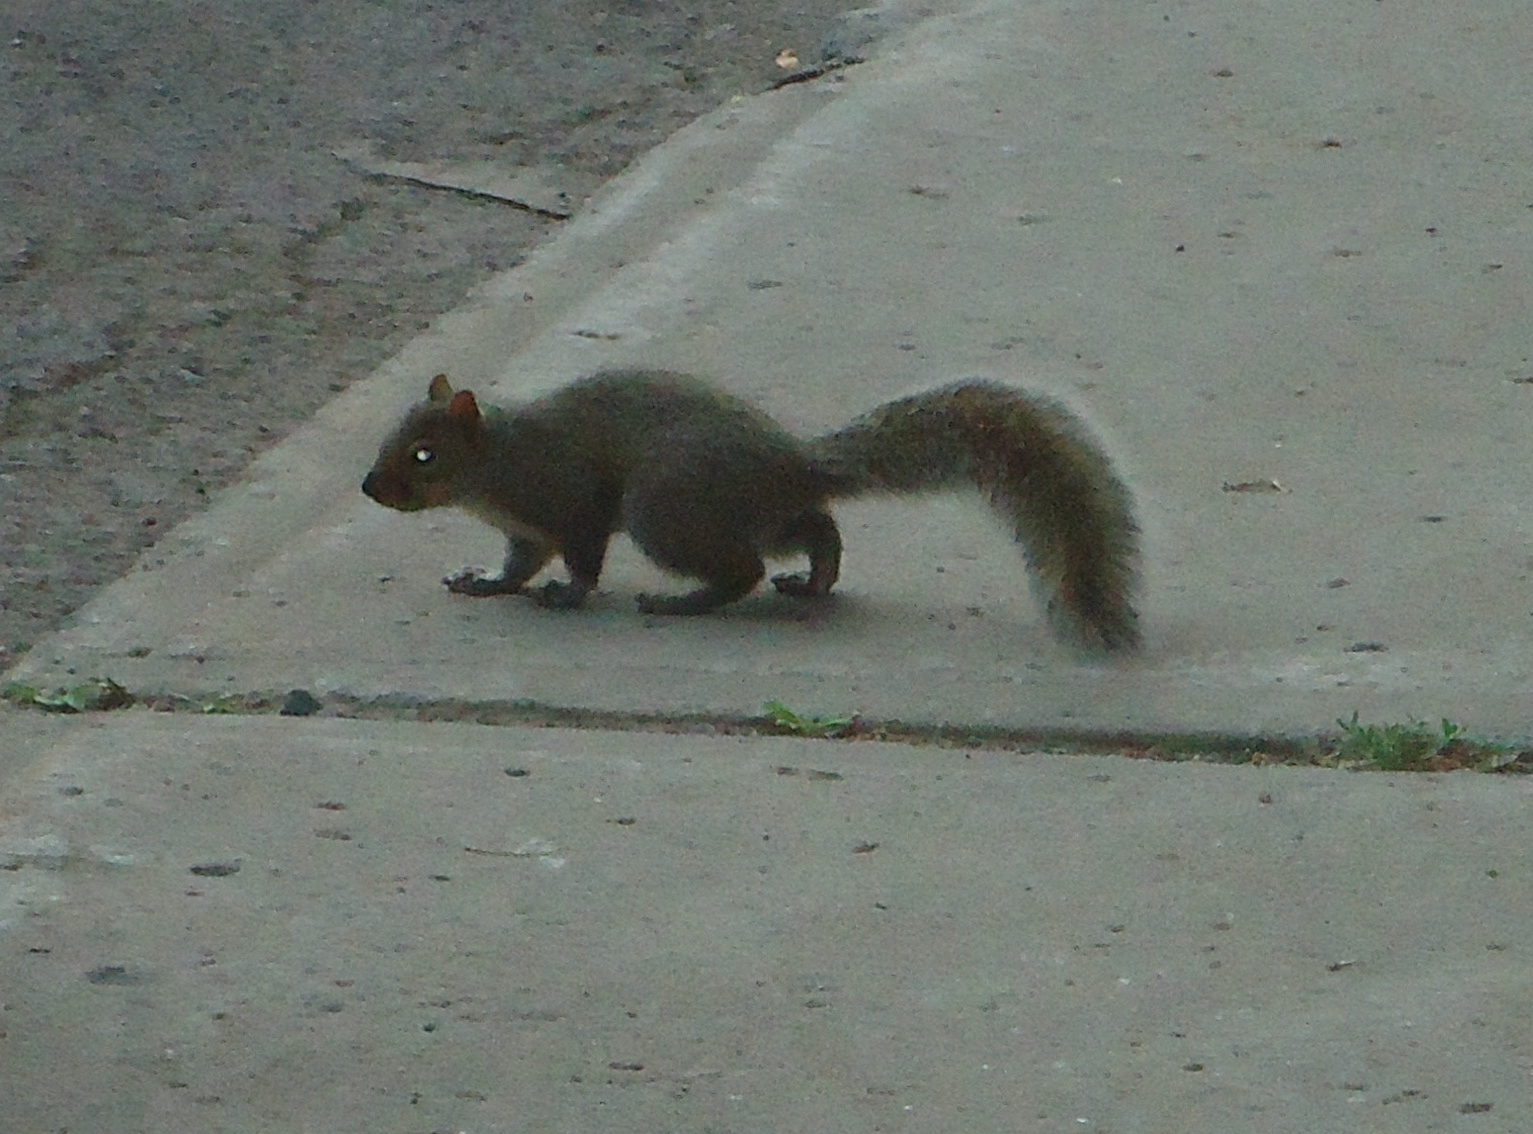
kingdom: Animalia
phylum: Chordata
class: Mammalia
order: Rodentia
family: Sciuridae
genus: Sciurus
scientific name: Sciurus carolinensis
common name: Eastern gray squirrel
